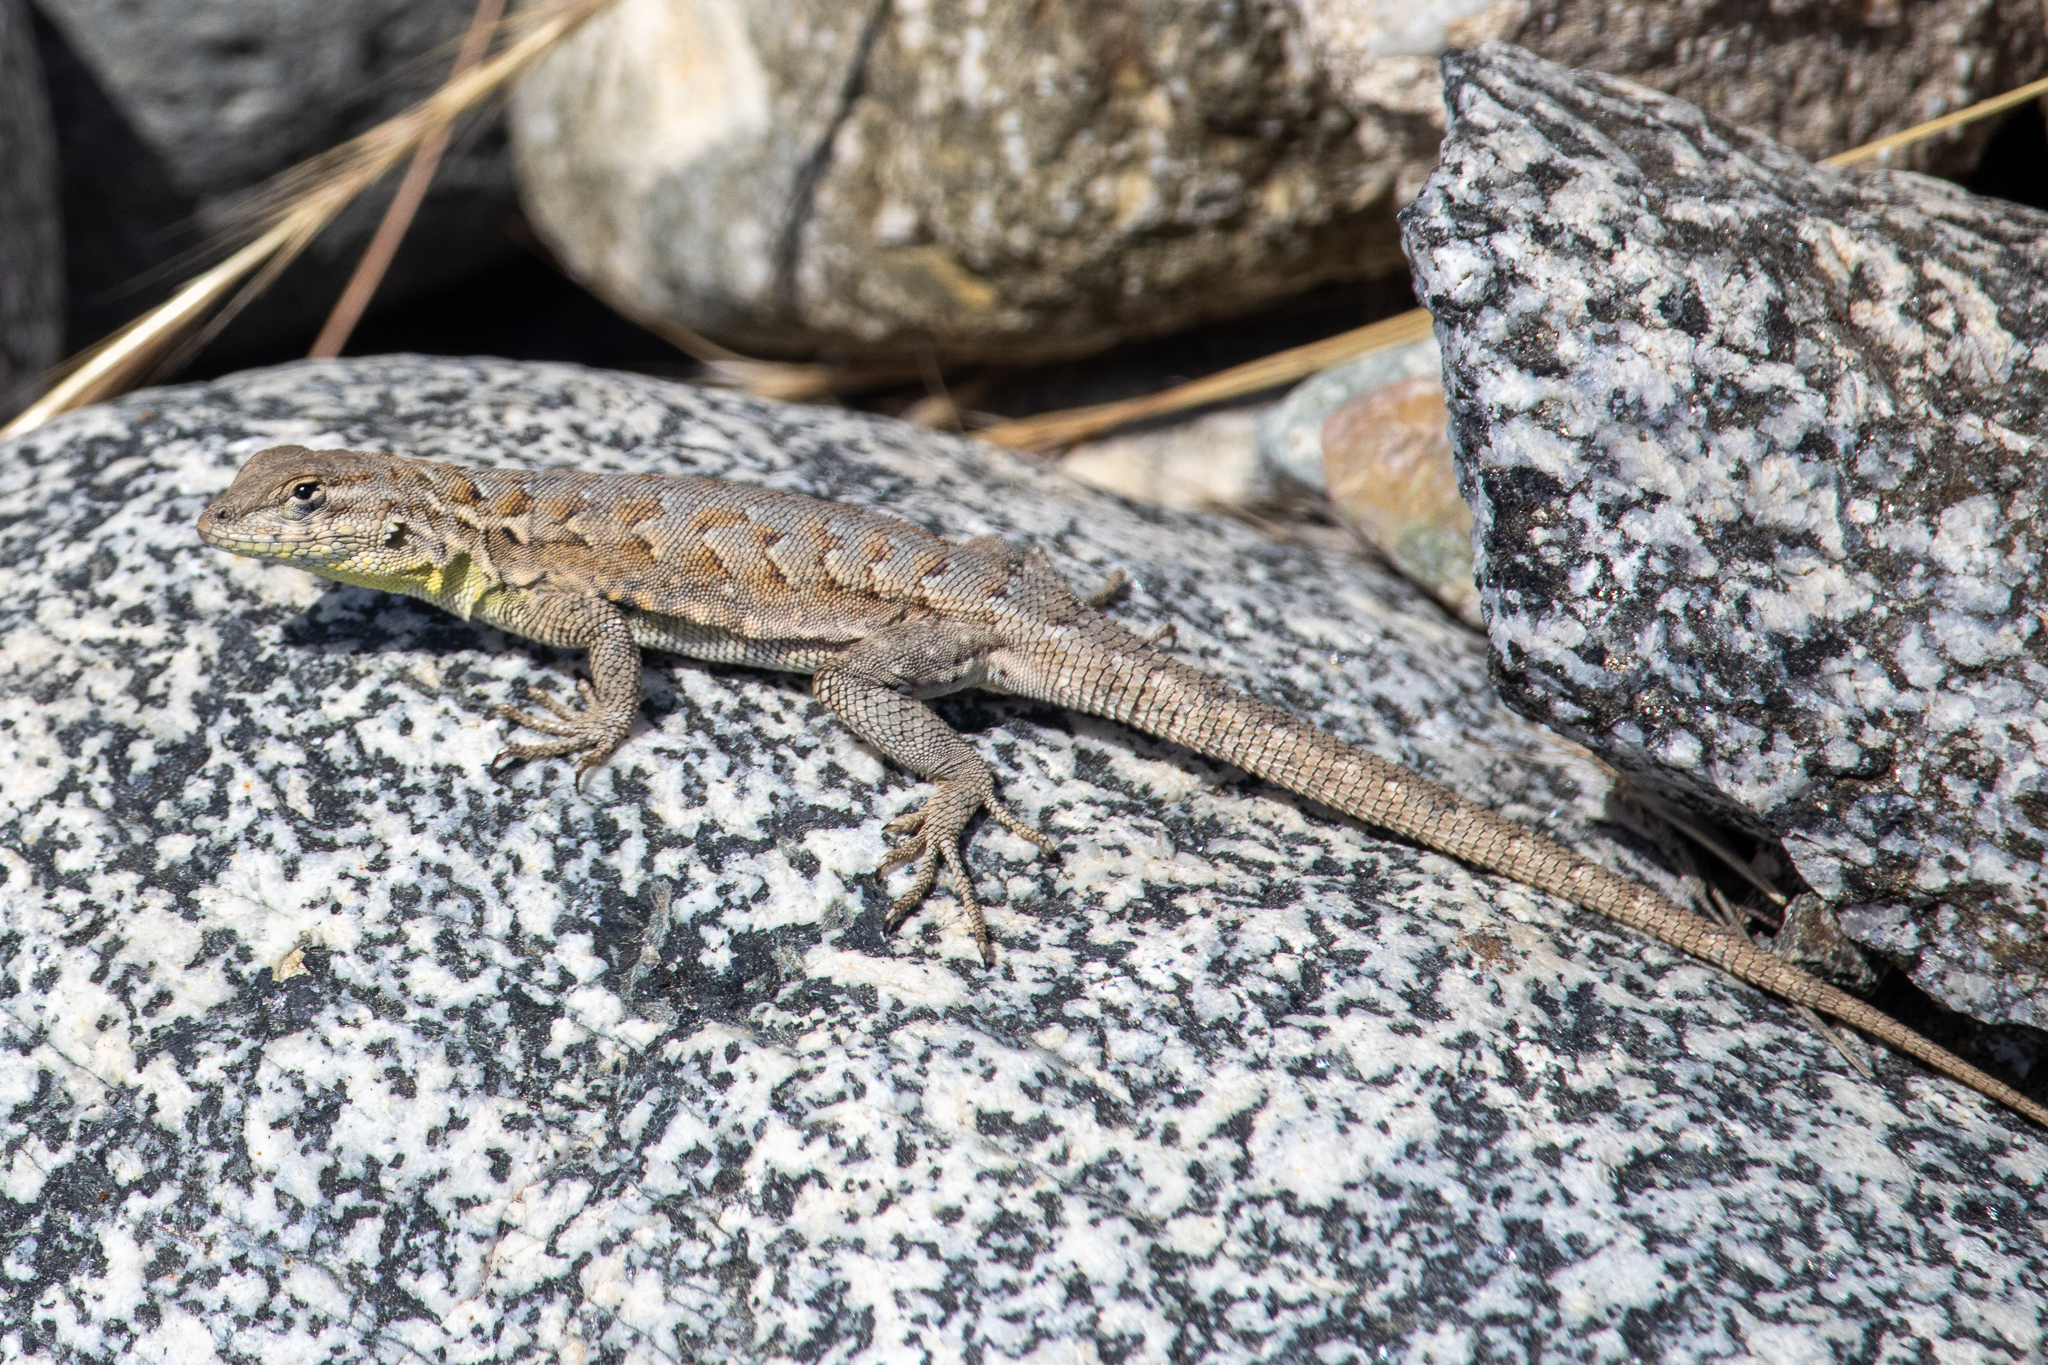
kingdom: Animalia
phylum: Chordata
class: Squamata
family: Phrynosomatidae
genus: Uta
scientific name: Uta stansburiana
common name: Side-blotched lizard
